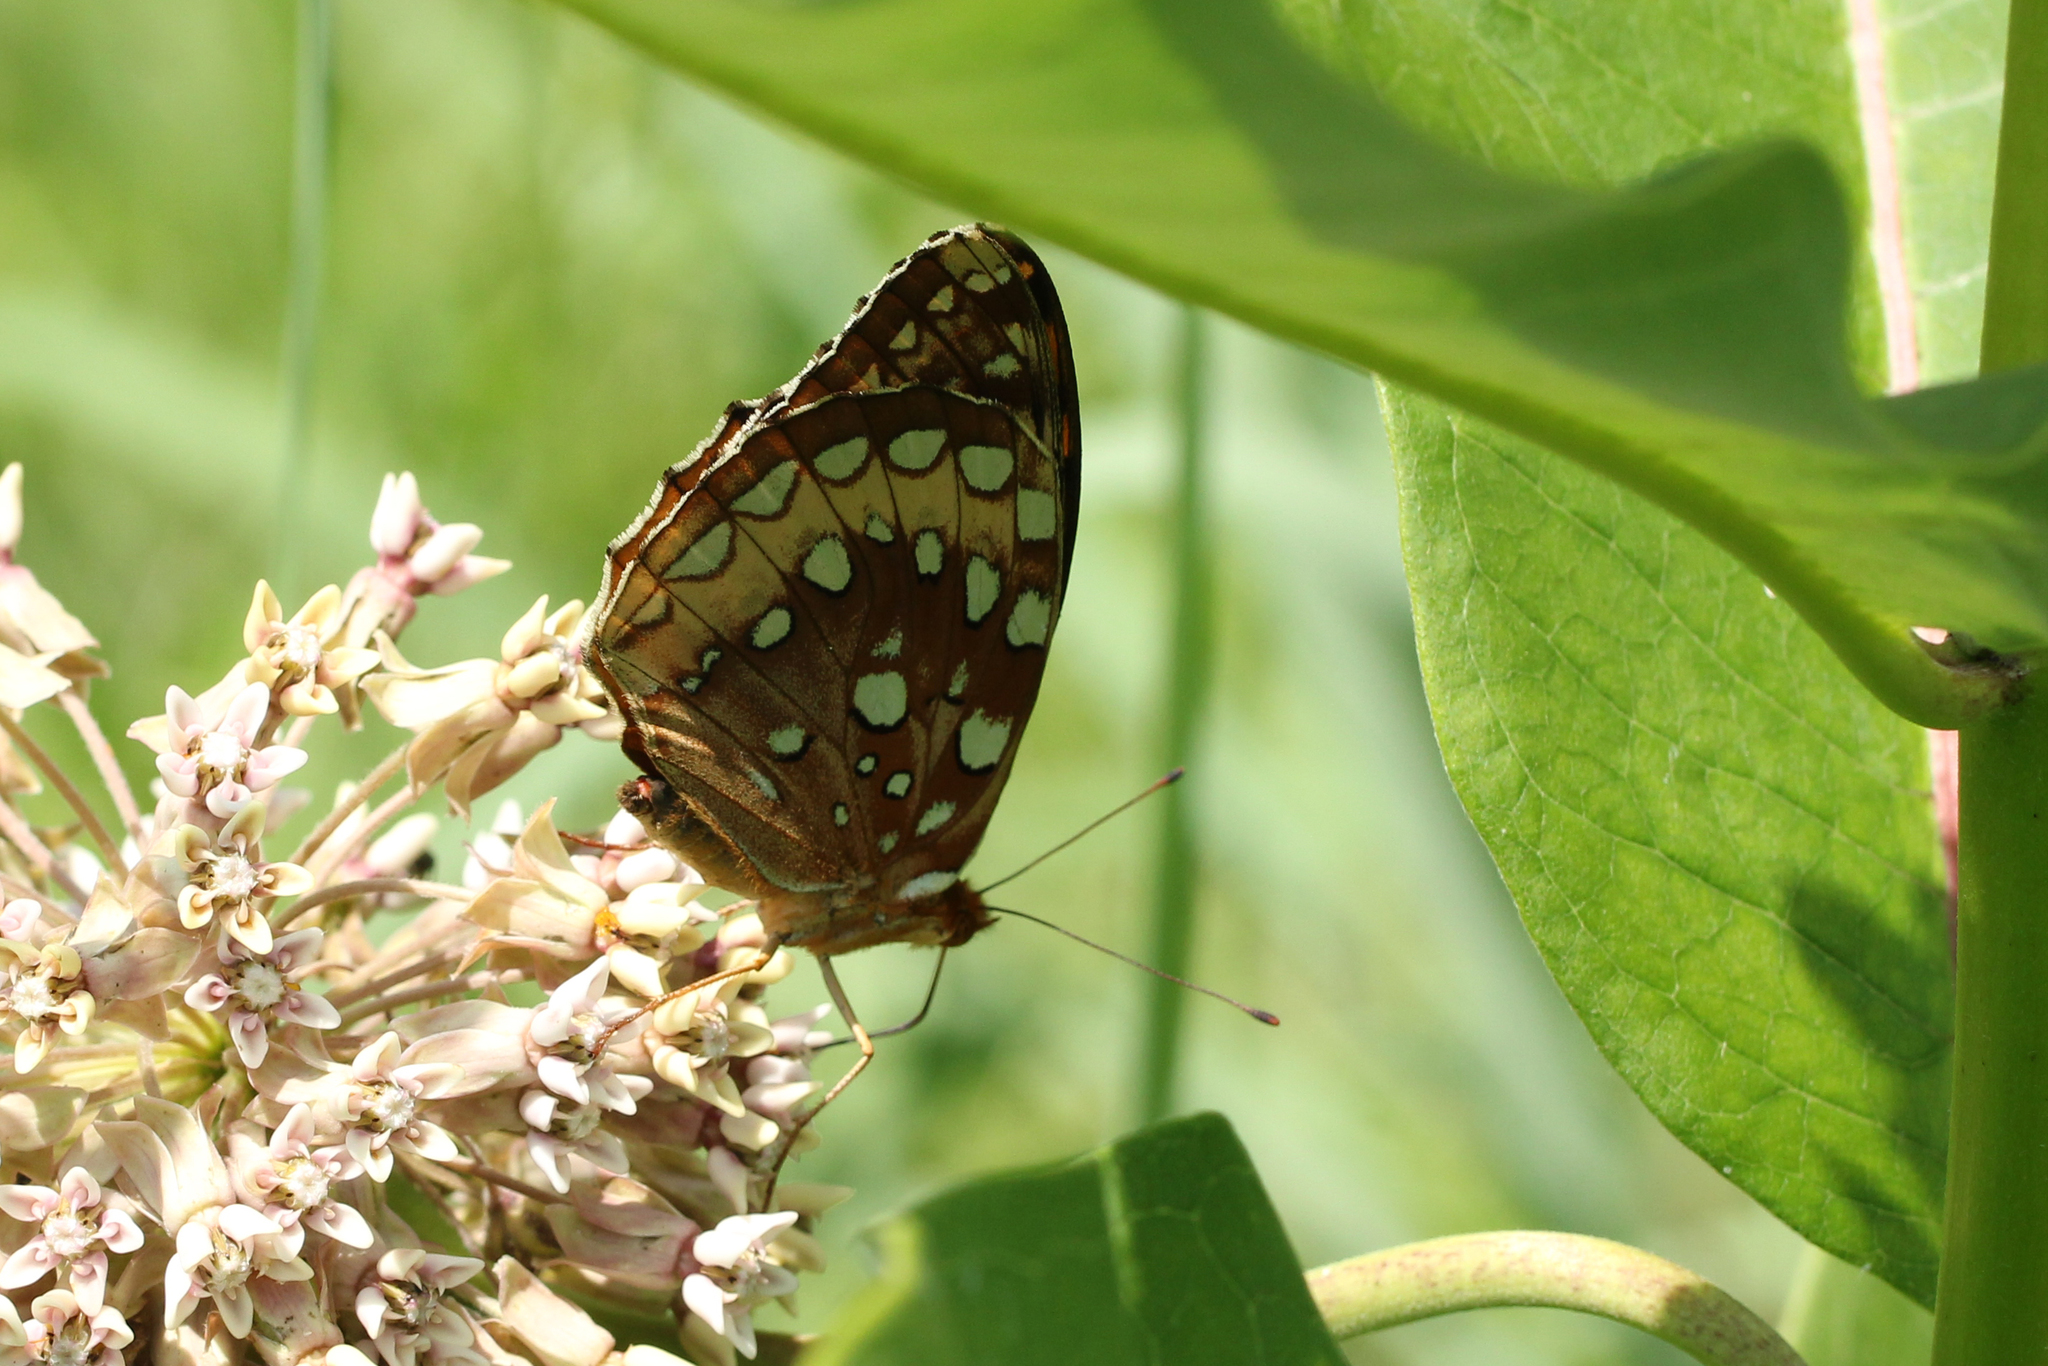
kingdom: Animalia
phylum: Arthropoda
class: Insecta
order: Lepidoptera
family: Nymphalidae
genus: Speyeria
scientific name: Speyeria cybele
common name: Great spangled fritillary
